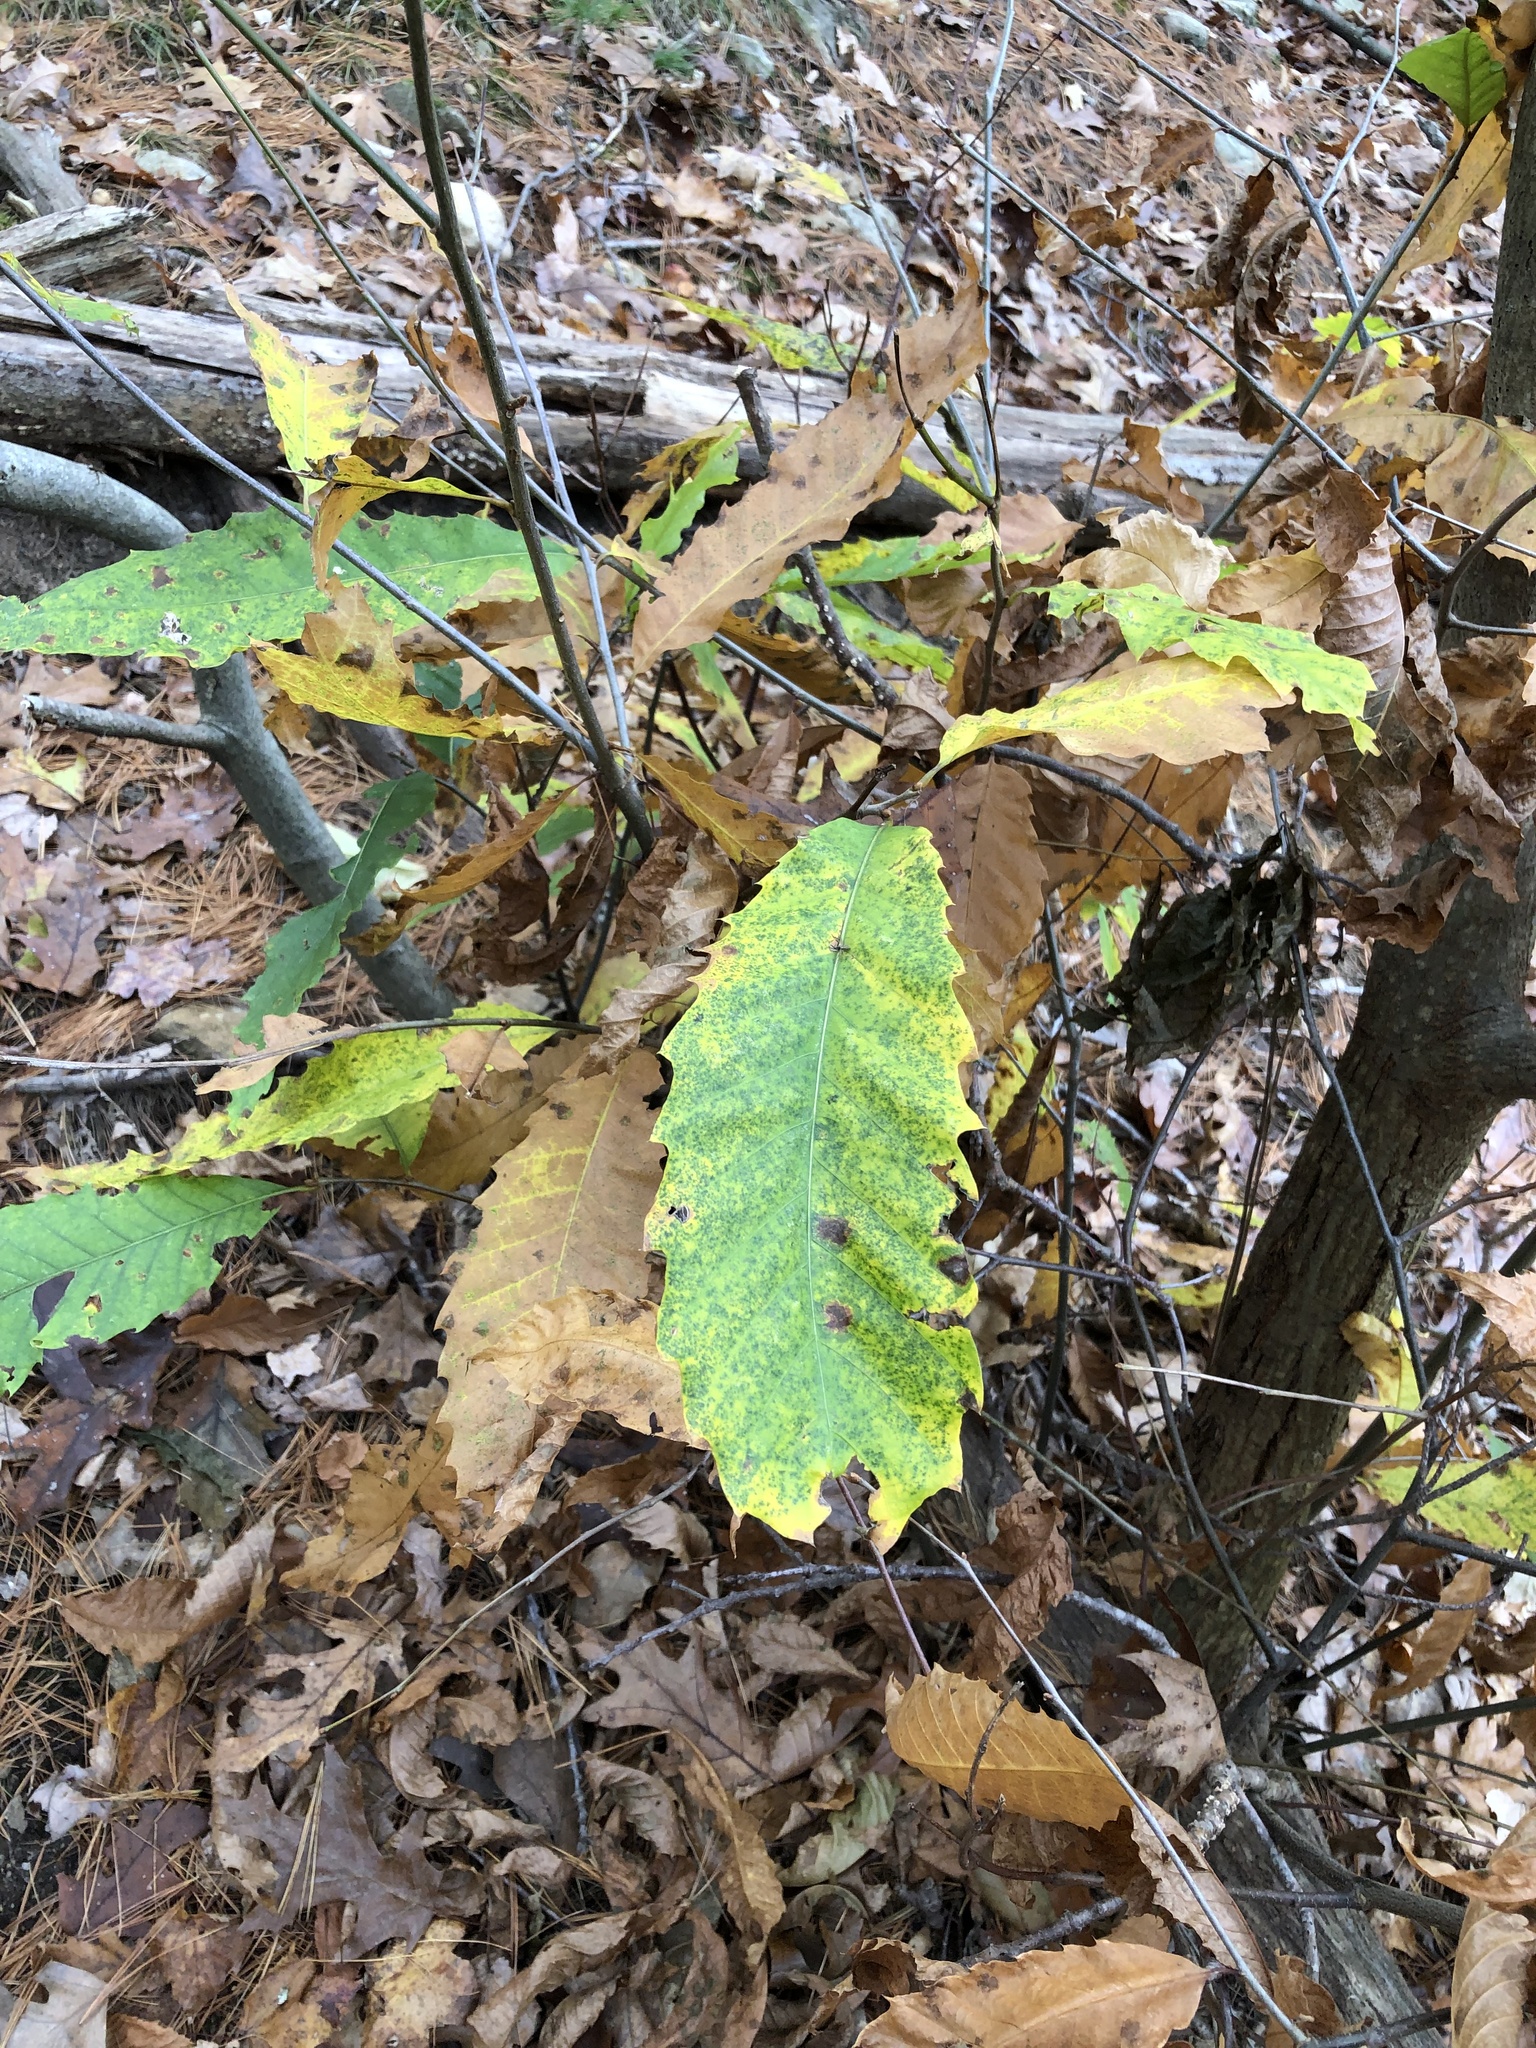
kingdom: Plantae
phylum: Tracheophyta
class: Magnoliopsida
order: Fagales
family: Fagaceae
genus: Castanea
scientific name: Castanea dentata
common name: American chestnut
